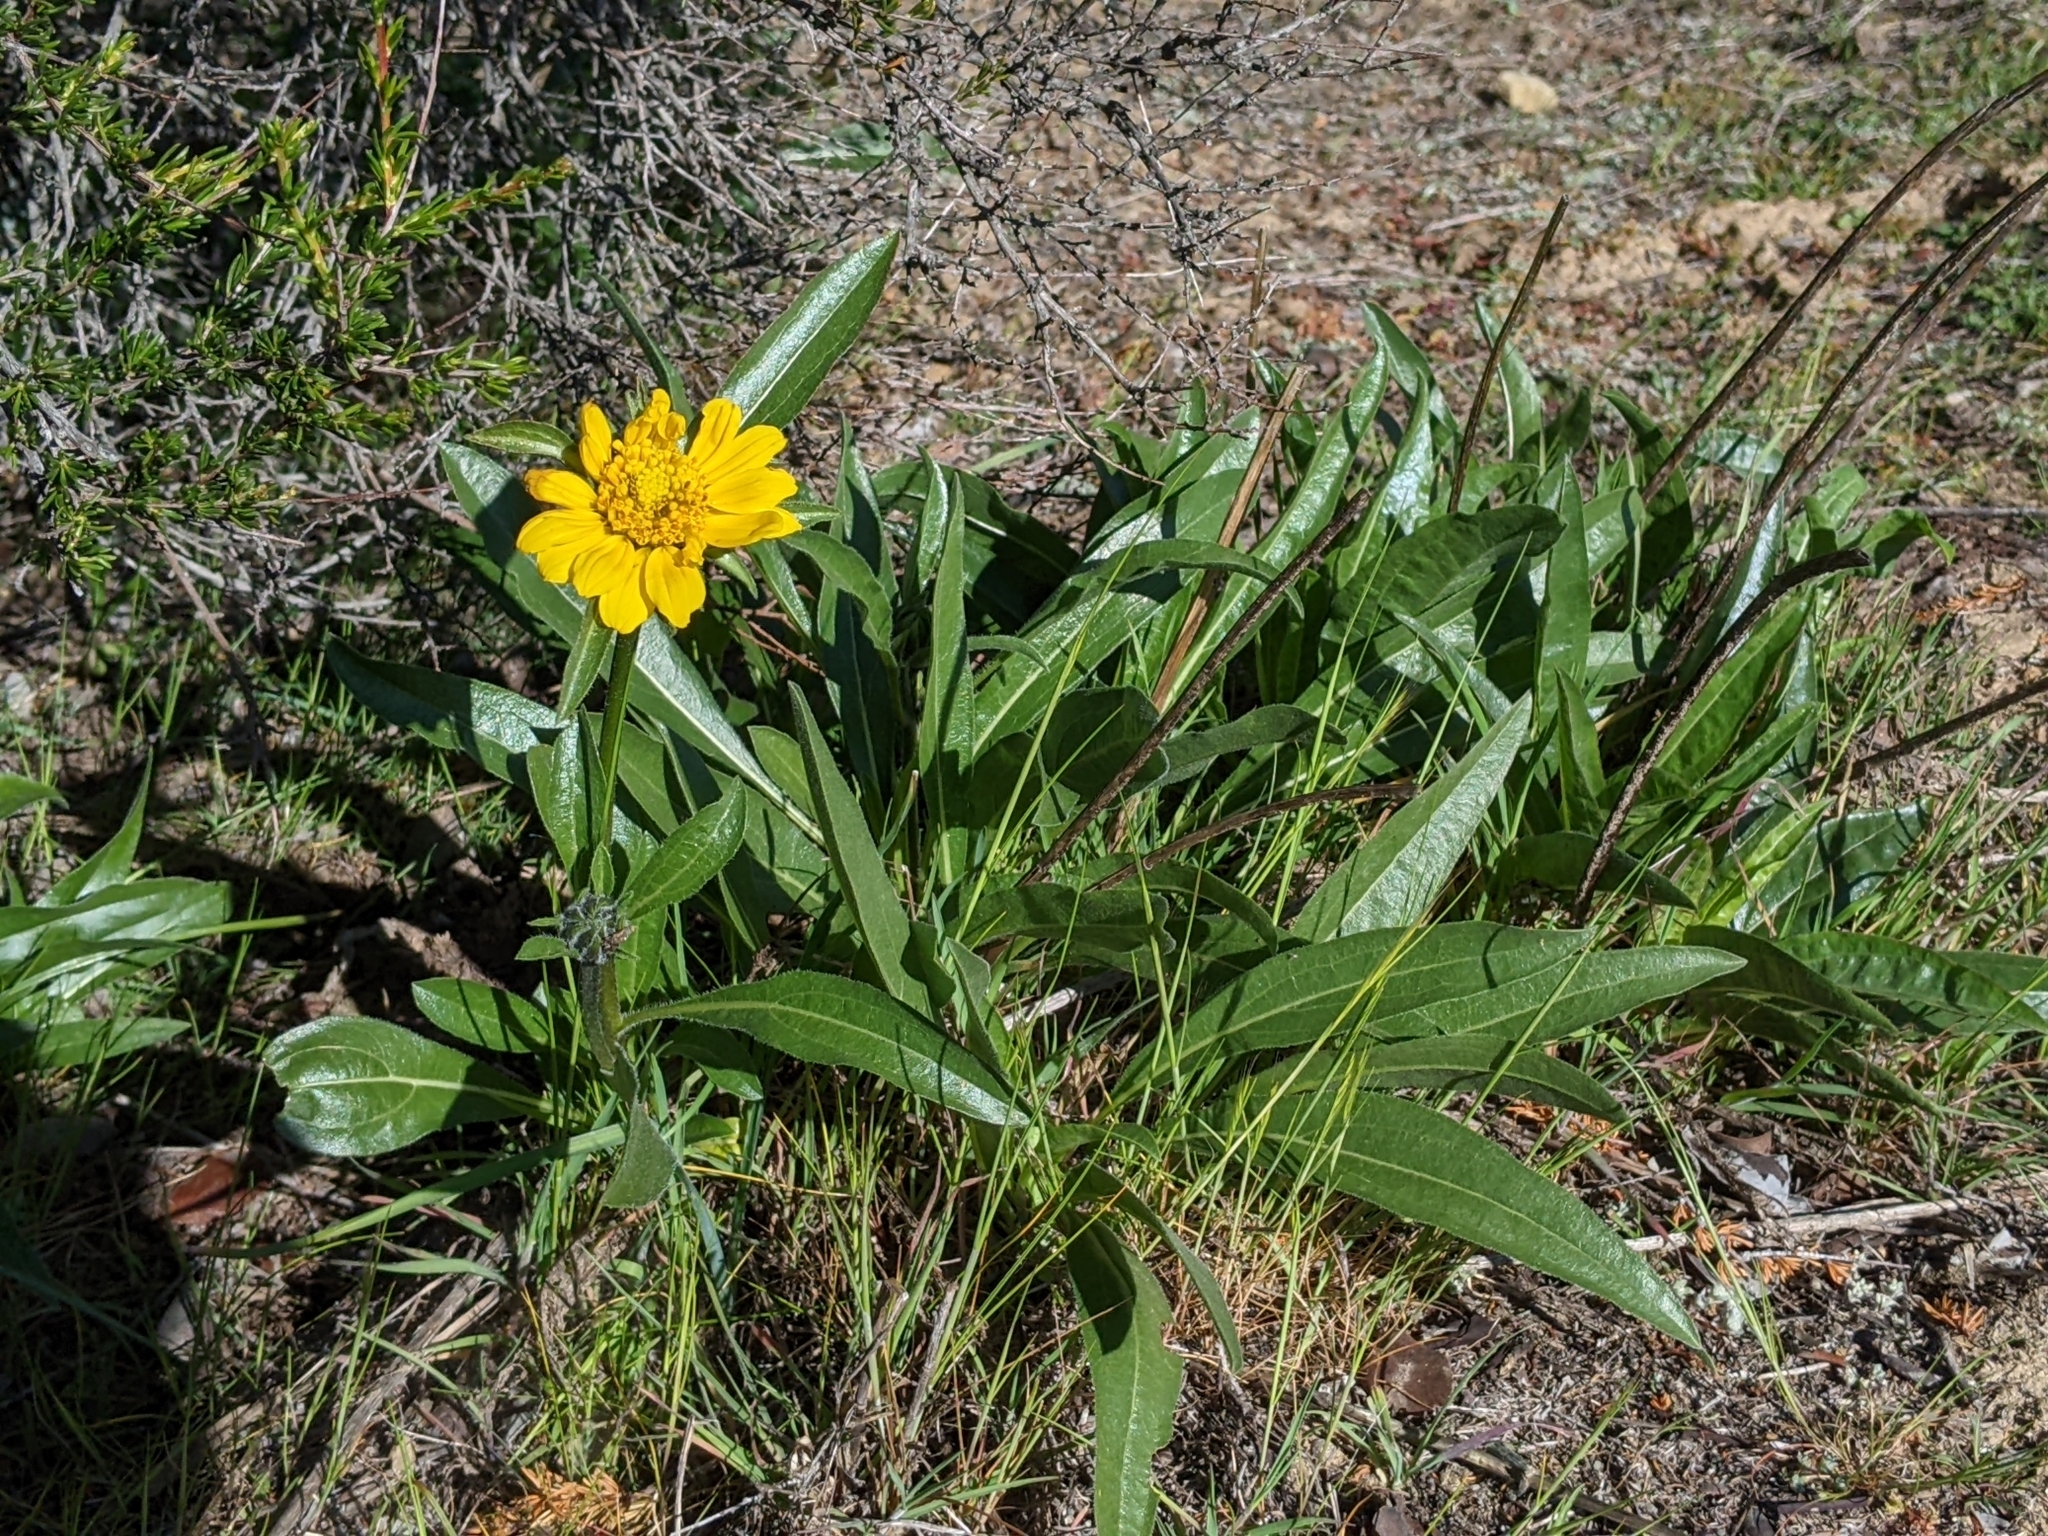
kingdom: Plantae
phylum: Tracheophyta
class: Magnoliopsida
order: Asterales
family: Asteraceae
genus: Helianthella
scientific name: Helianthella castanea
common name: Diablo helianthella
